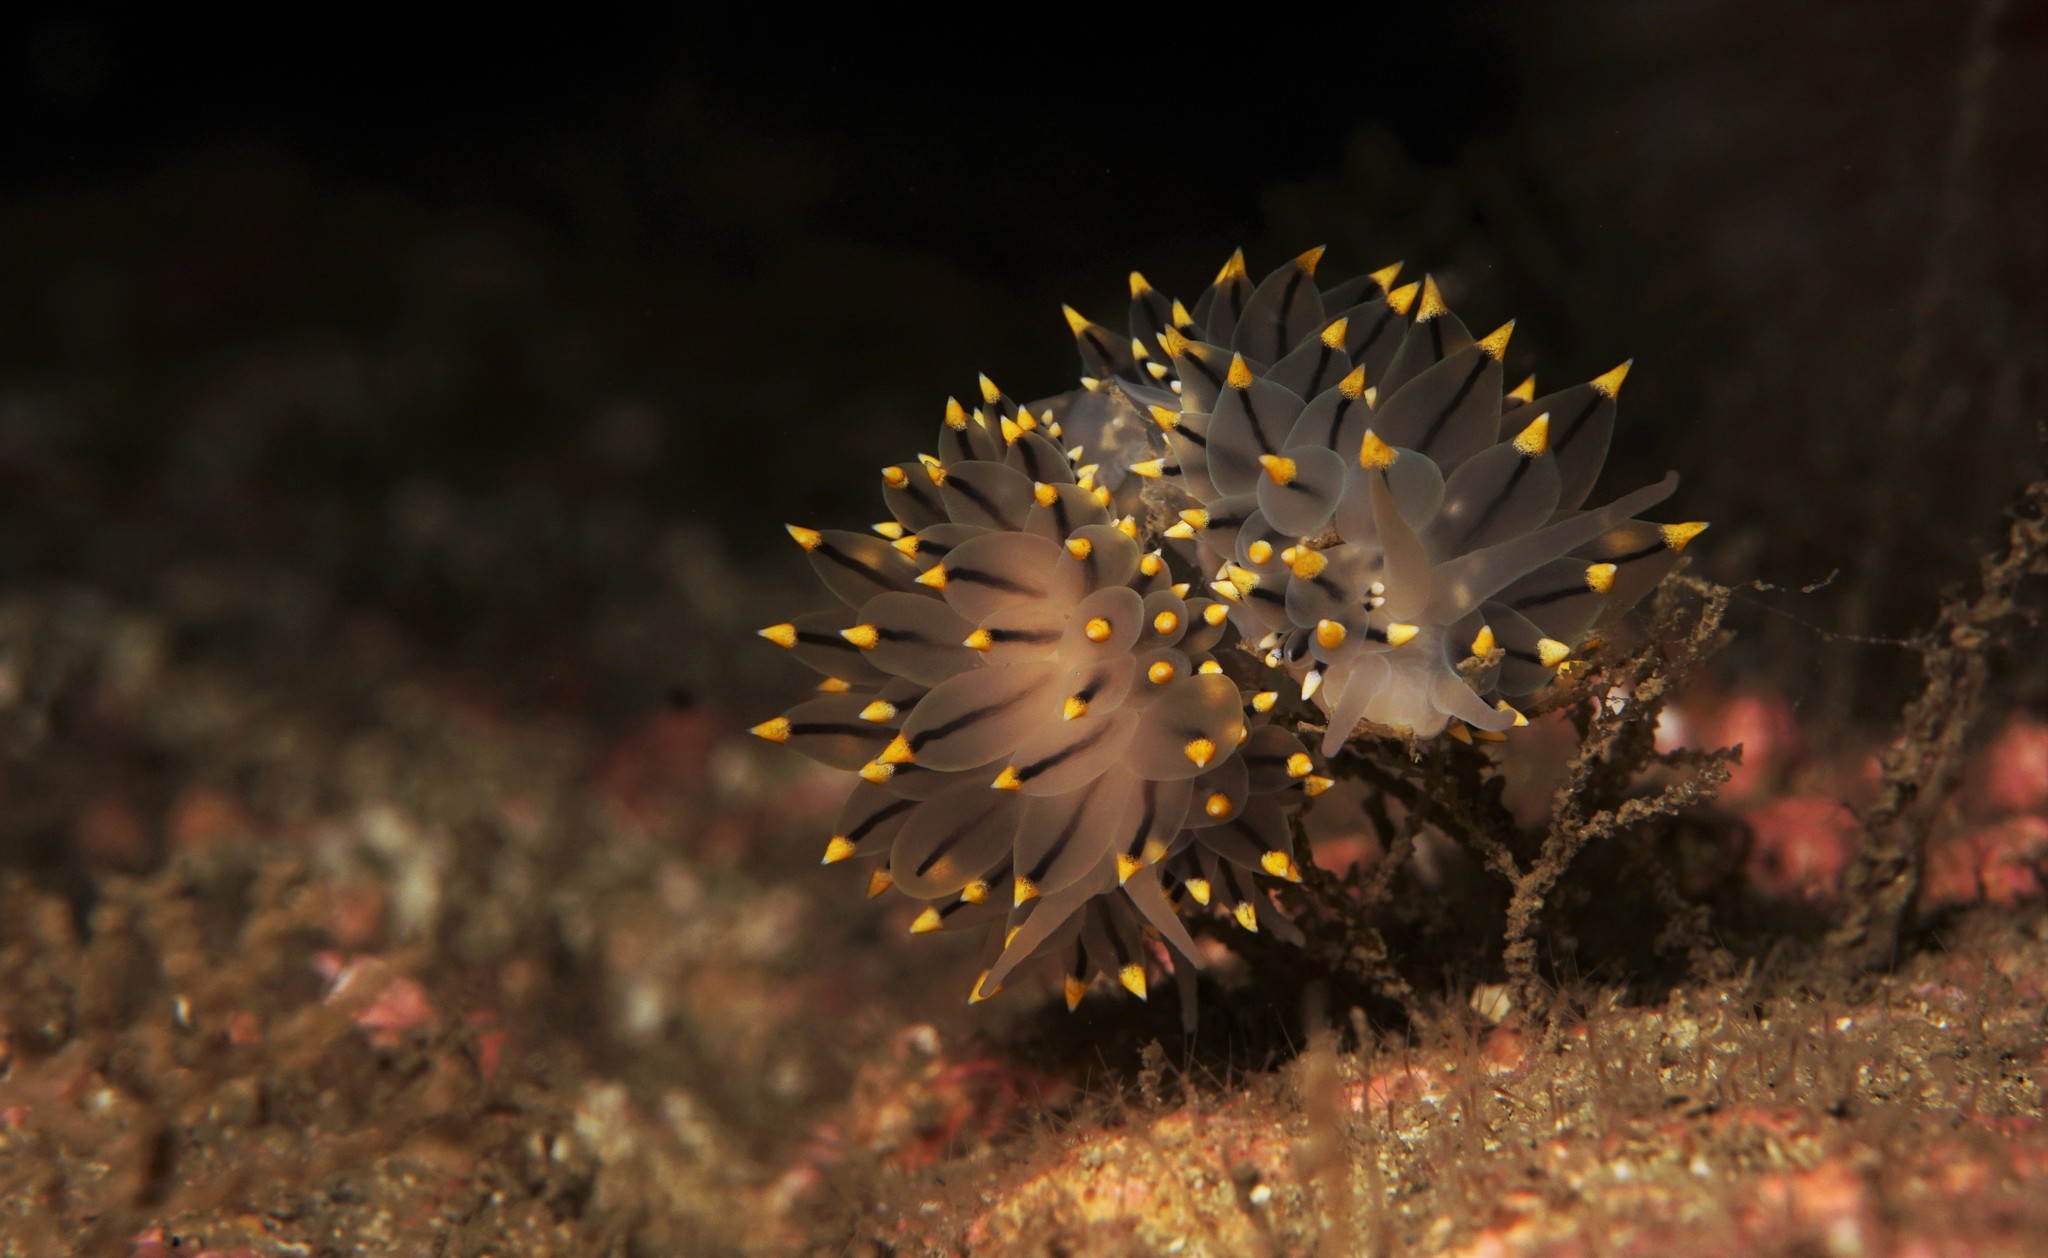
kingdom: Animalia
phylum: Mollusca
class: Gastropoda
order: Nudibranchia
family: Eubranchidae
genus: Eubranchus
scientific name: Eubranchus tricolor
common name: Painted balloon aeolis
